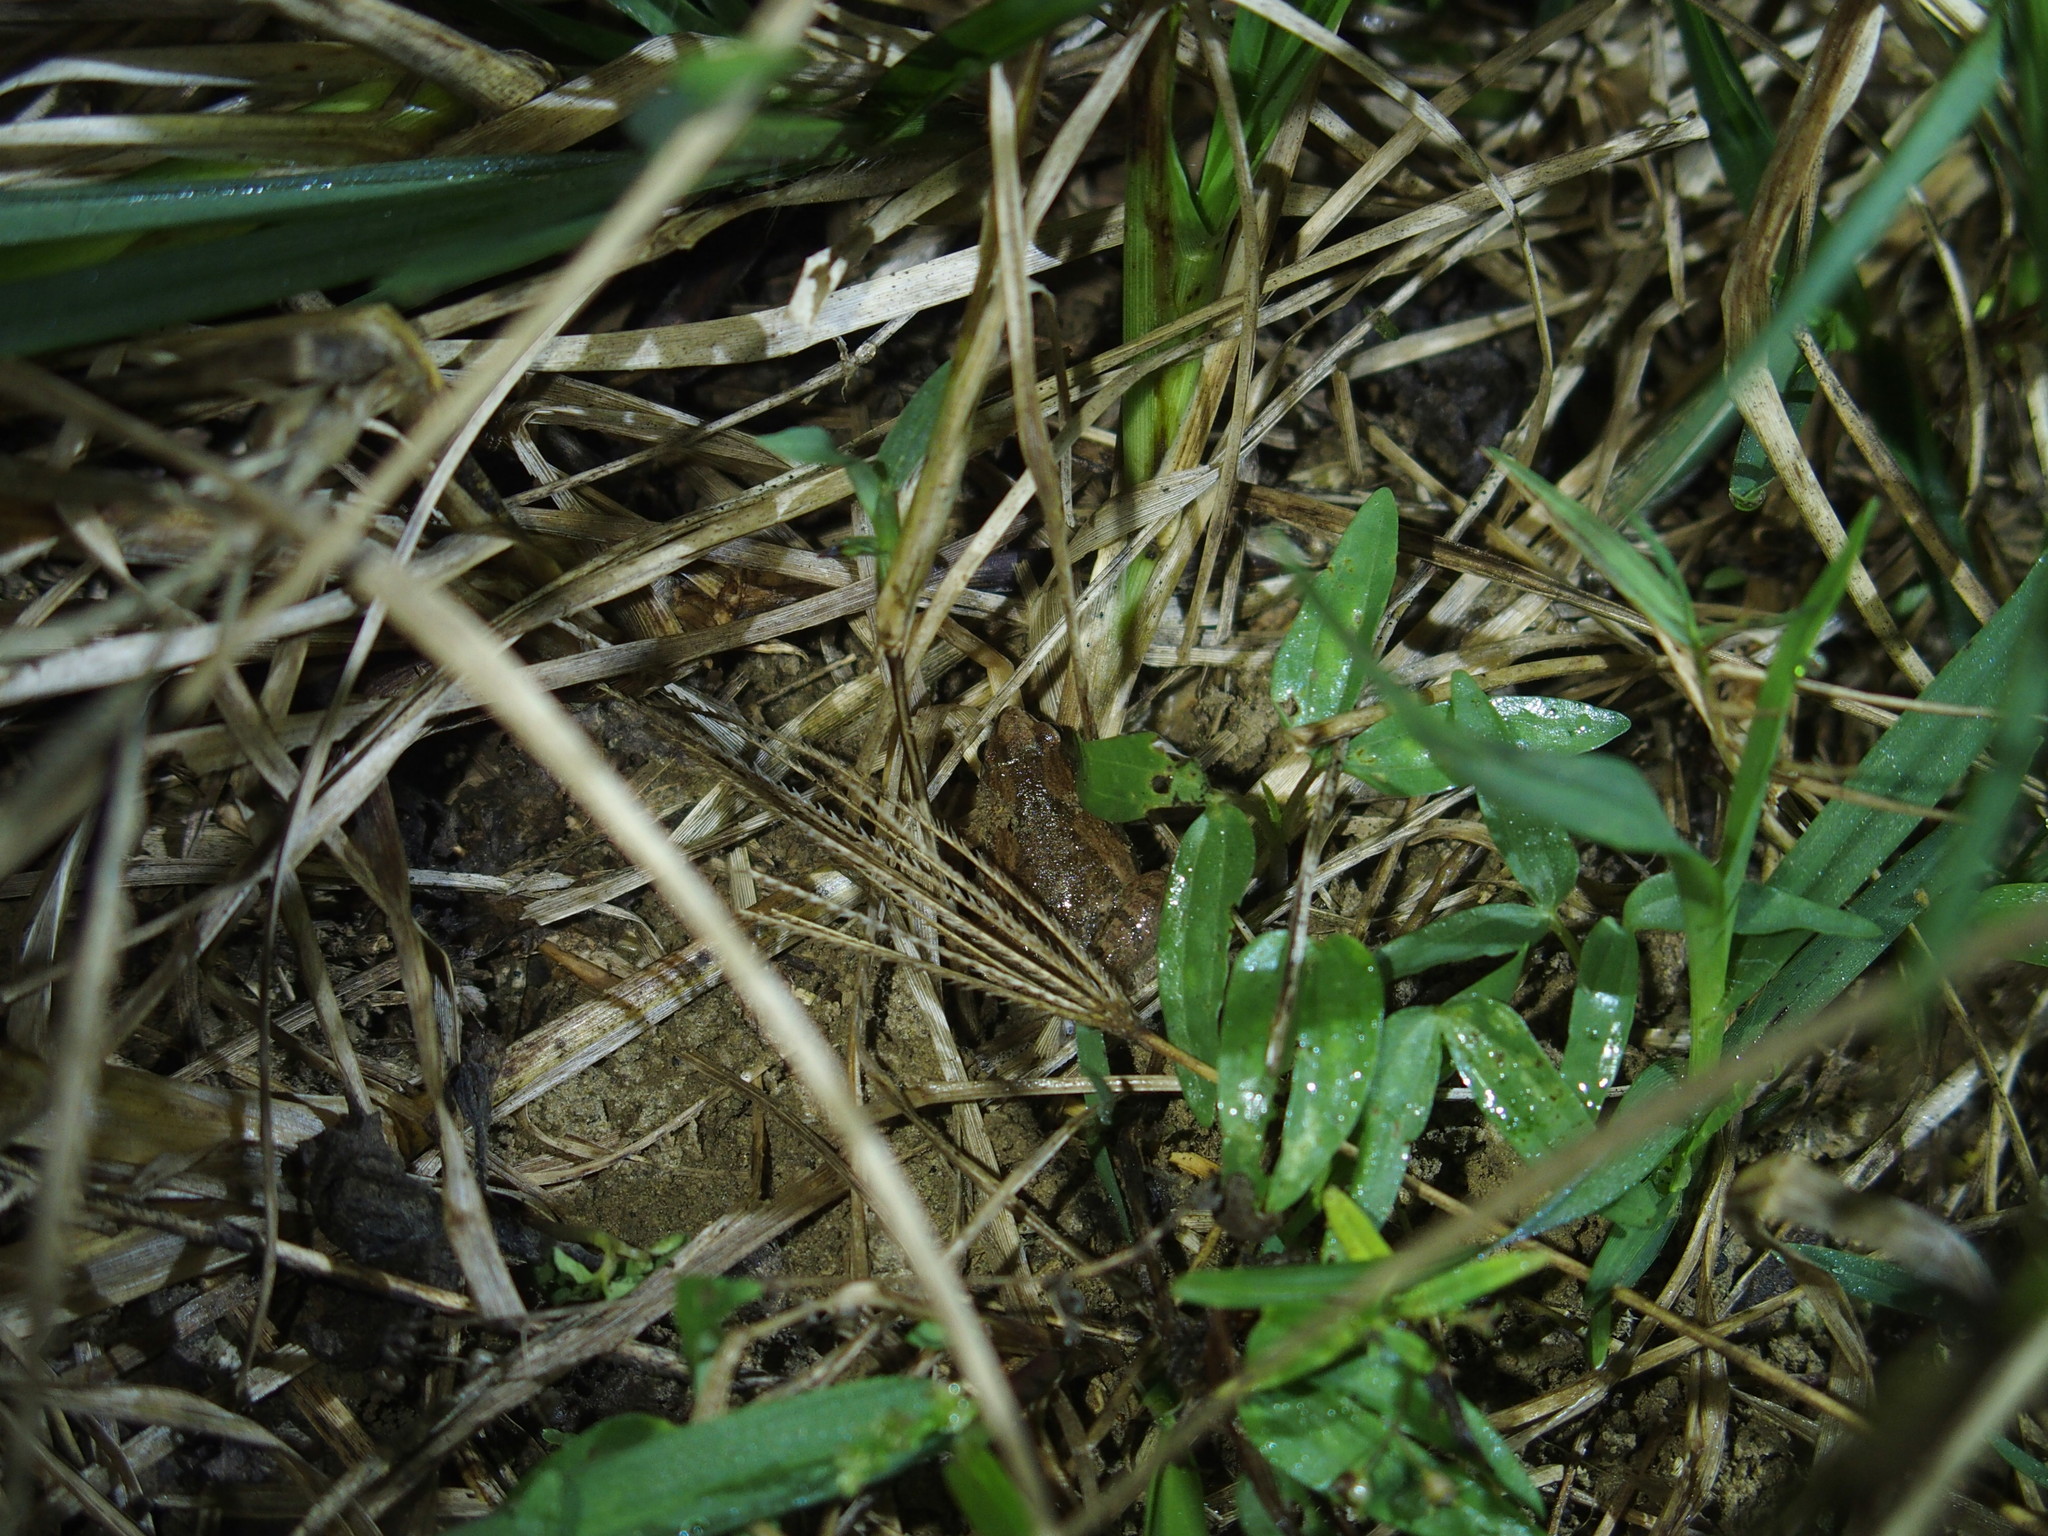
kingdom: Animalia
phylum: Chordata
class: Amphibia
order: Anura
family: Microhylidae
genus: Microhyla
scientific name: Microhyla fissipes
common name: Ornate narrow-mouthed frog
